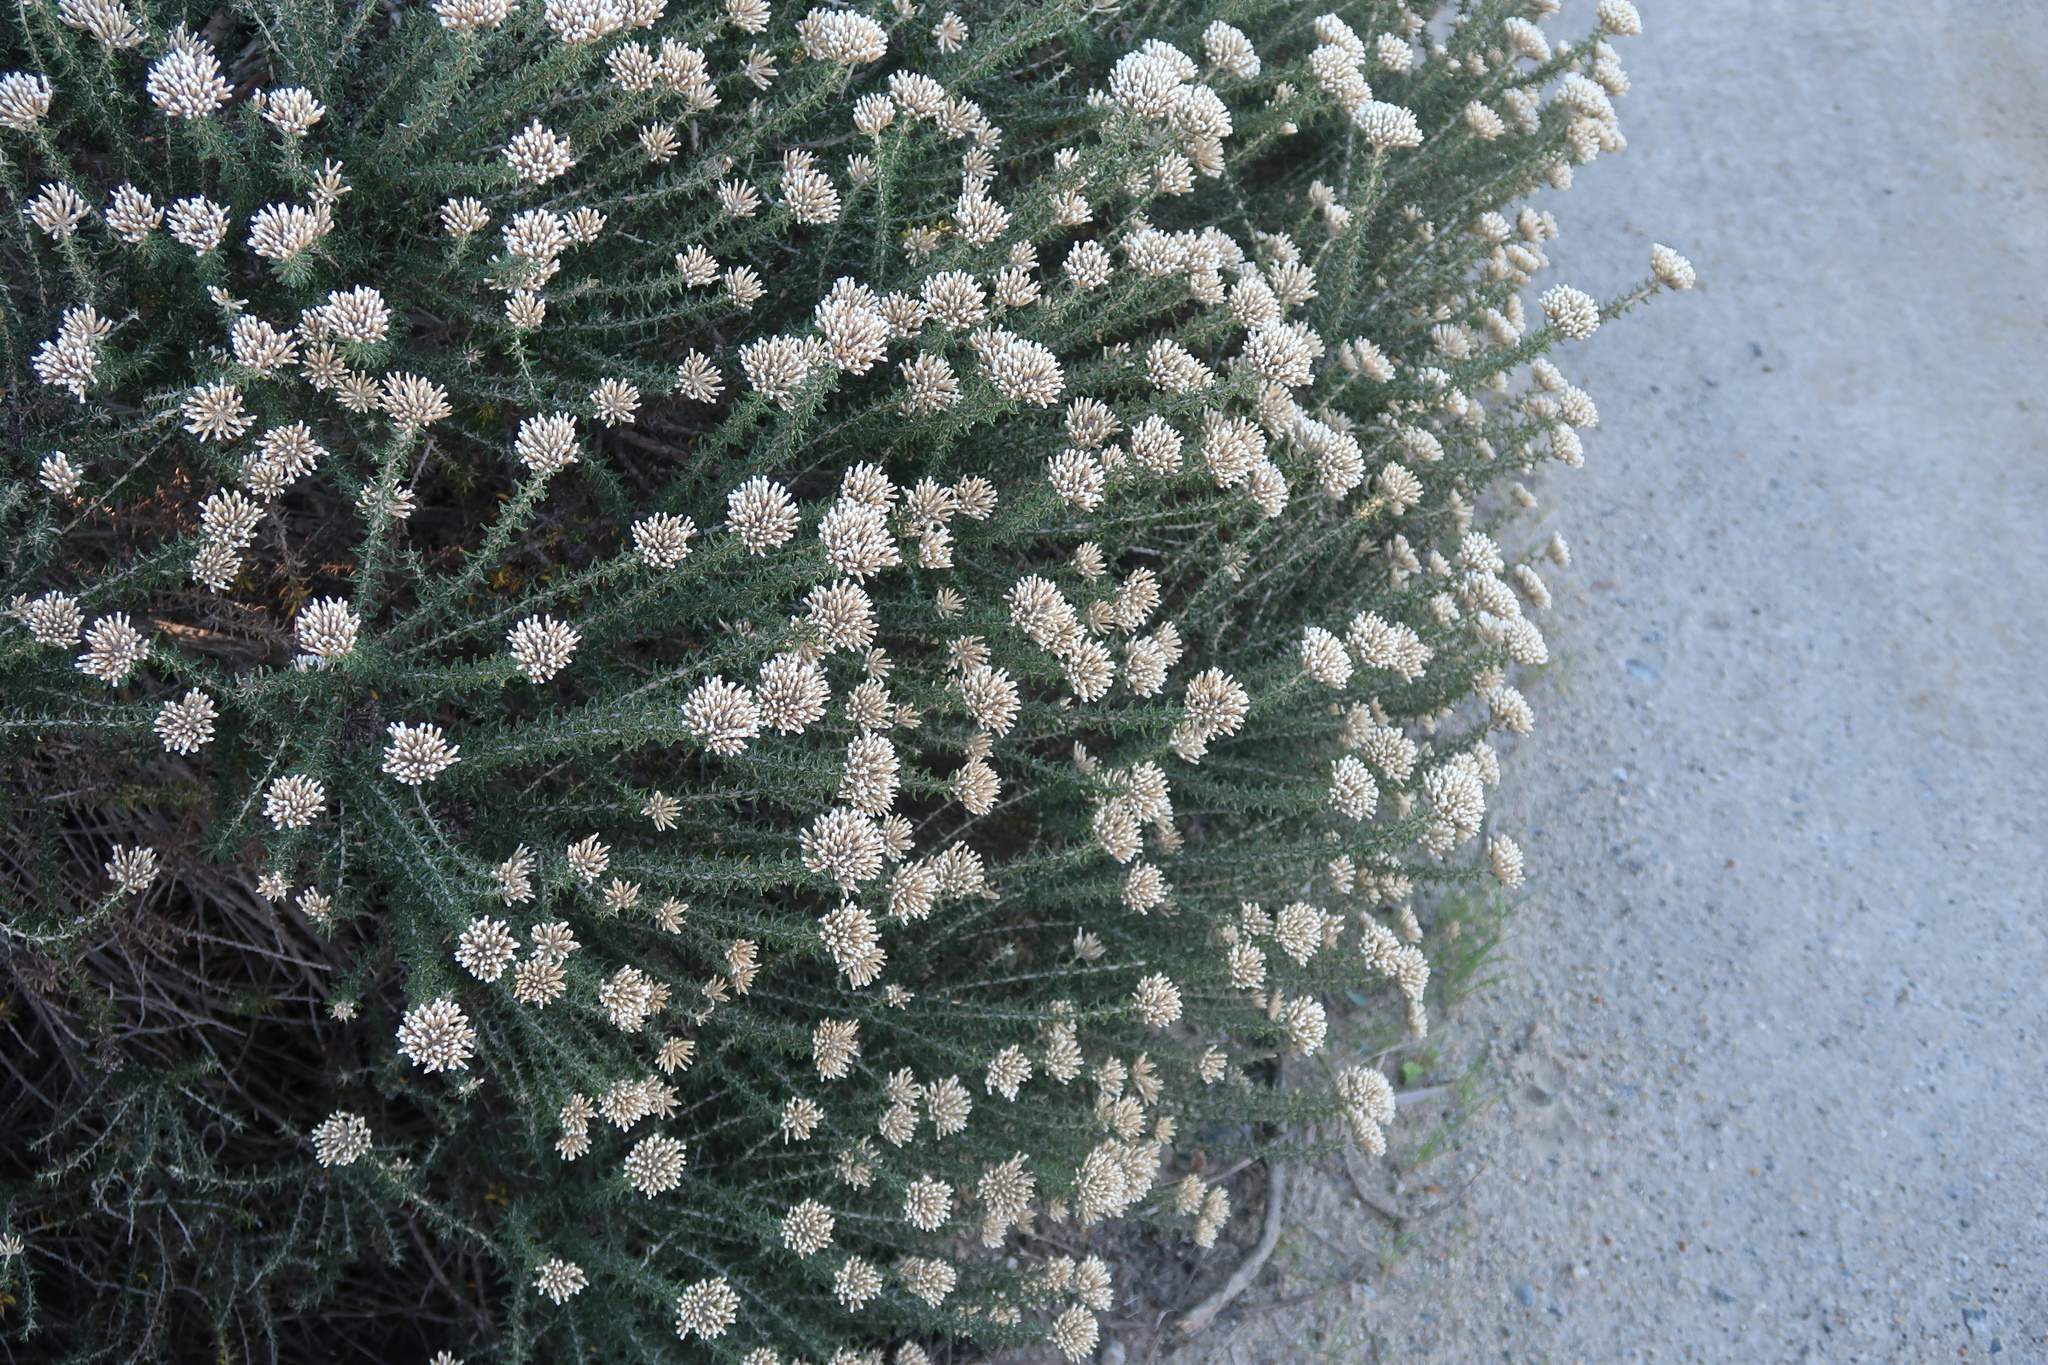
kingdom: Plantae
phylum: Tracheophyta
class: Magnoliopsida
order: Asterales
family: Asteraceae
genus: Metalasia
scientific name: Metalasia muricata
